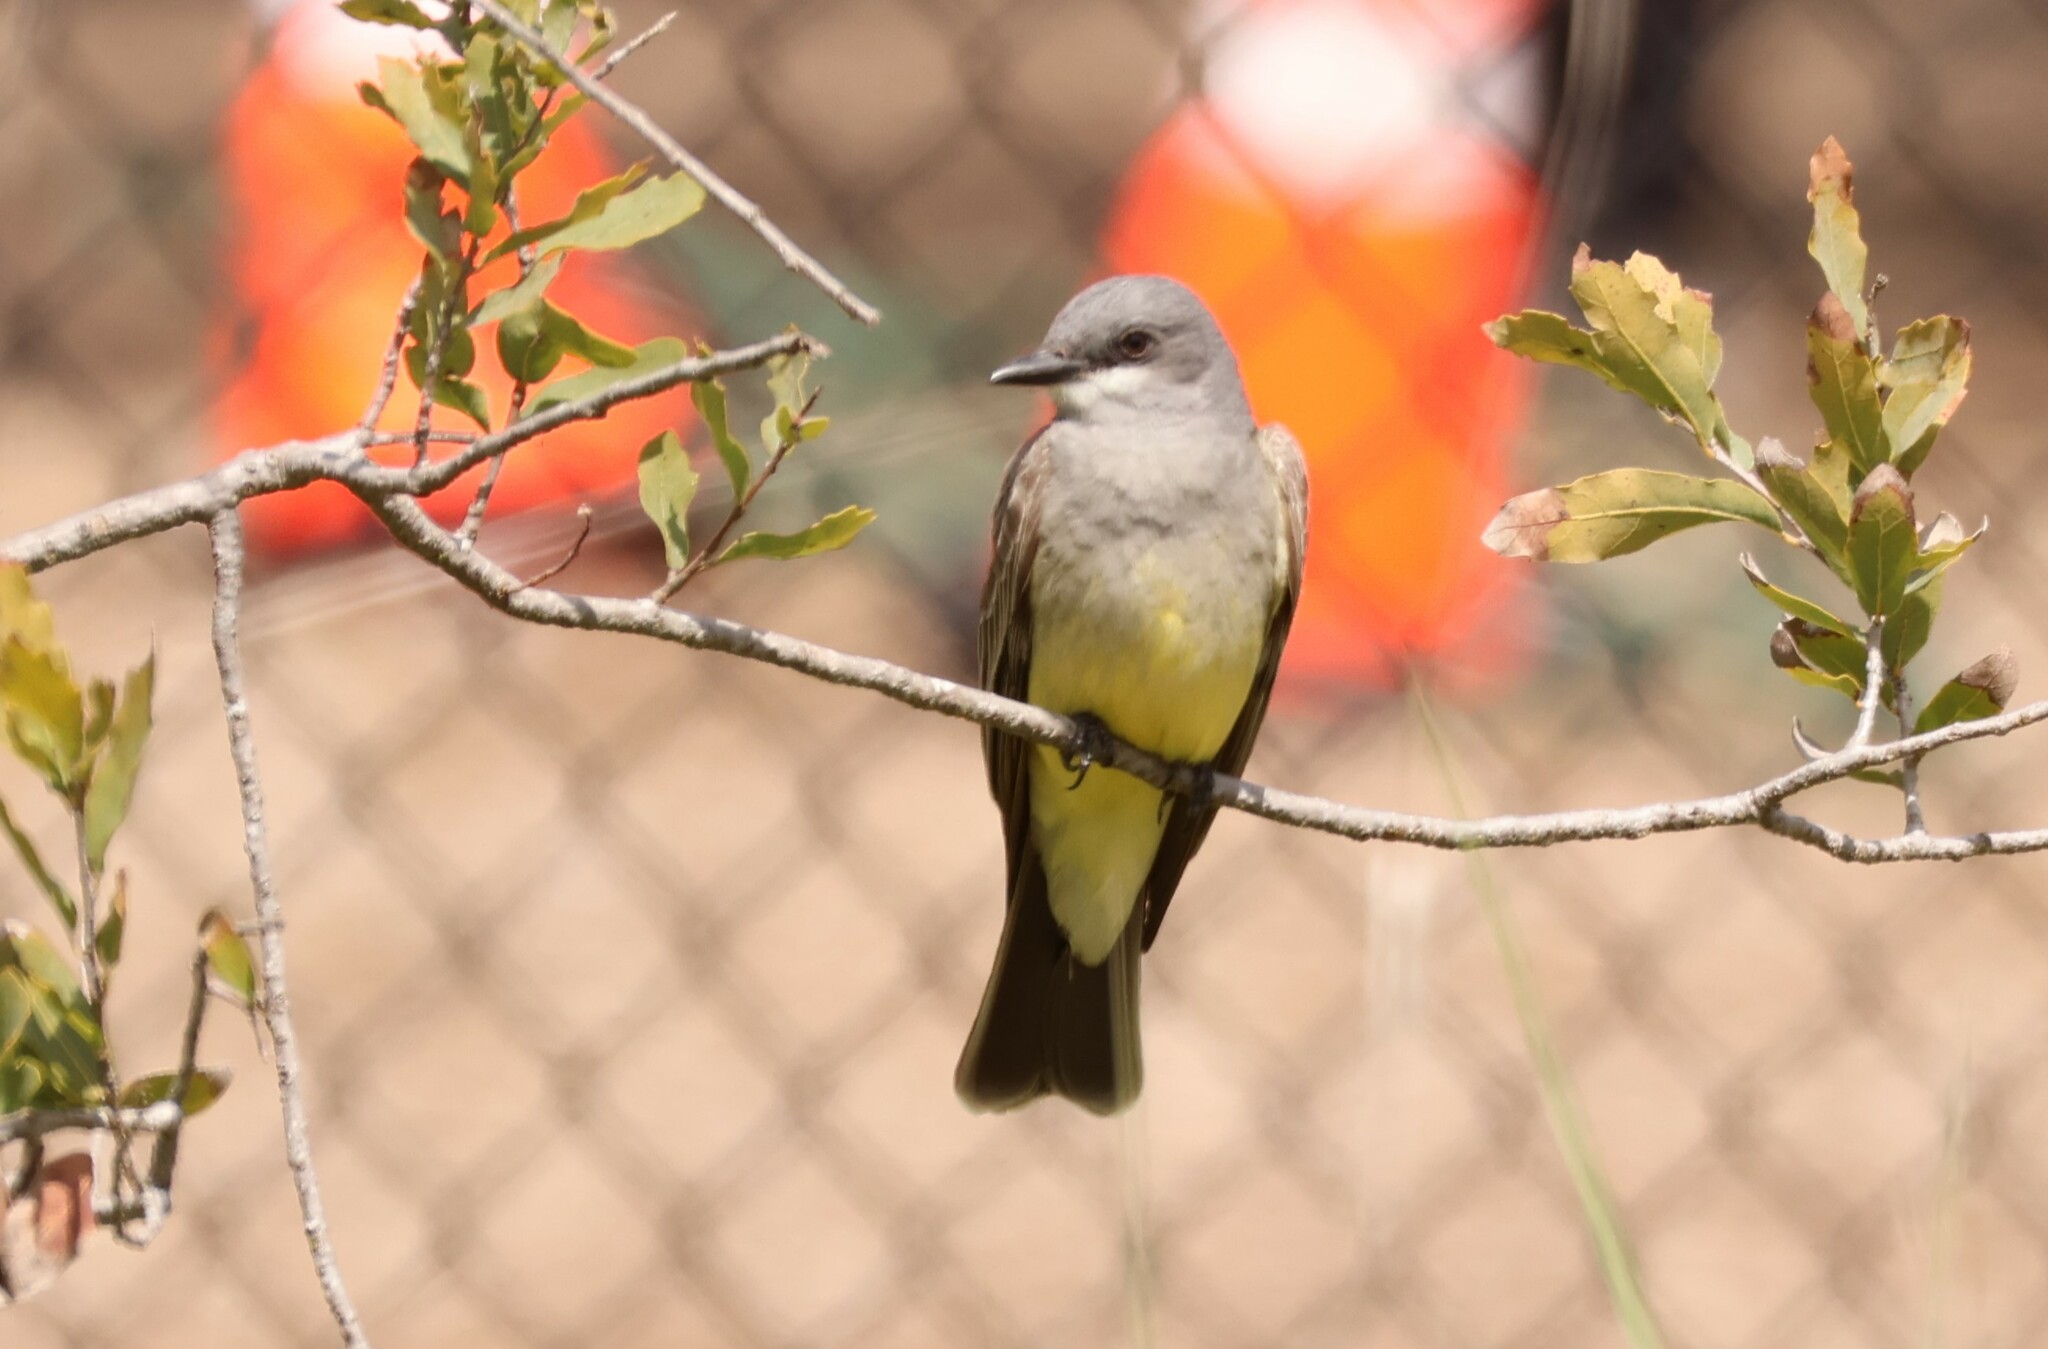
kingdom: Animalia
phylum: Chordata
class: Aves
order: Passeriformes
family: Tyrannidae
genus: Tyrannus
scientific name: Tyrannus vociferans
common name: Cassin's kingbird
